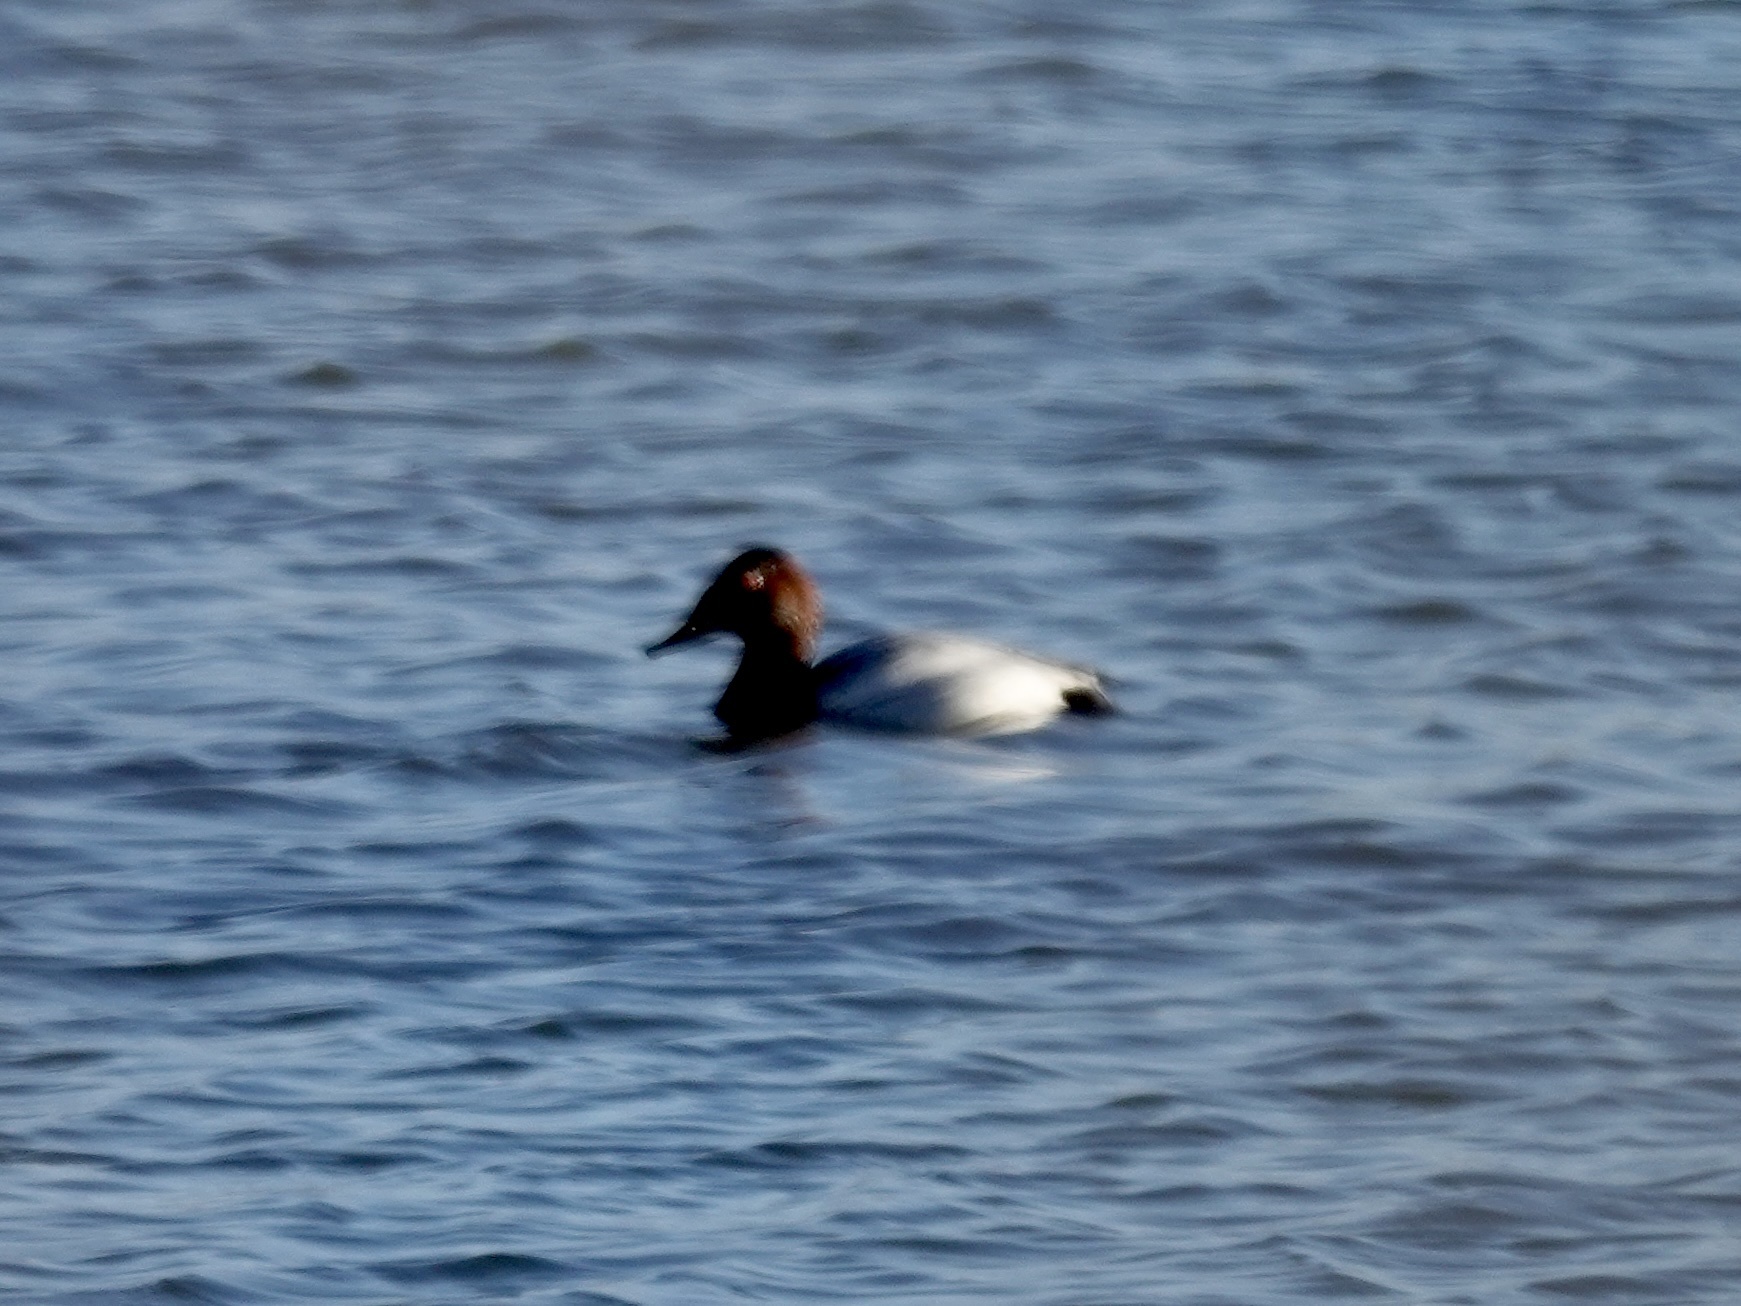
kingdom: Animalia
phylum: Chordata
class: Aves
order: Anseriformes
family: Anatidae
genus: Aythya
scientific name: Aythya valisineria
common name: Canvasback
